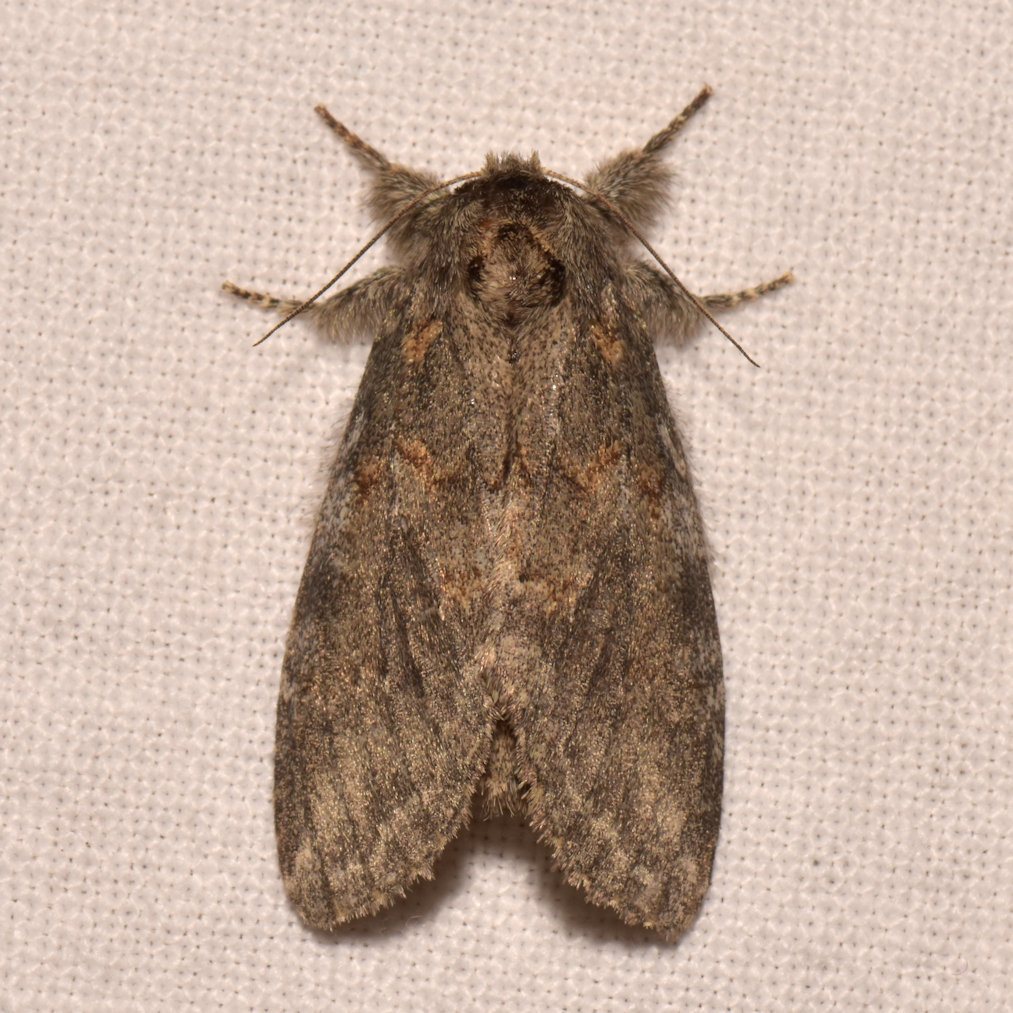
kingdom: Animalia
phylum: Arthropoda
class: Insecta
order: Lepidoptera
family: Notodontidae
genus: Peridea
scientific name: Peridea angulosa
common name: Angulose prominent
